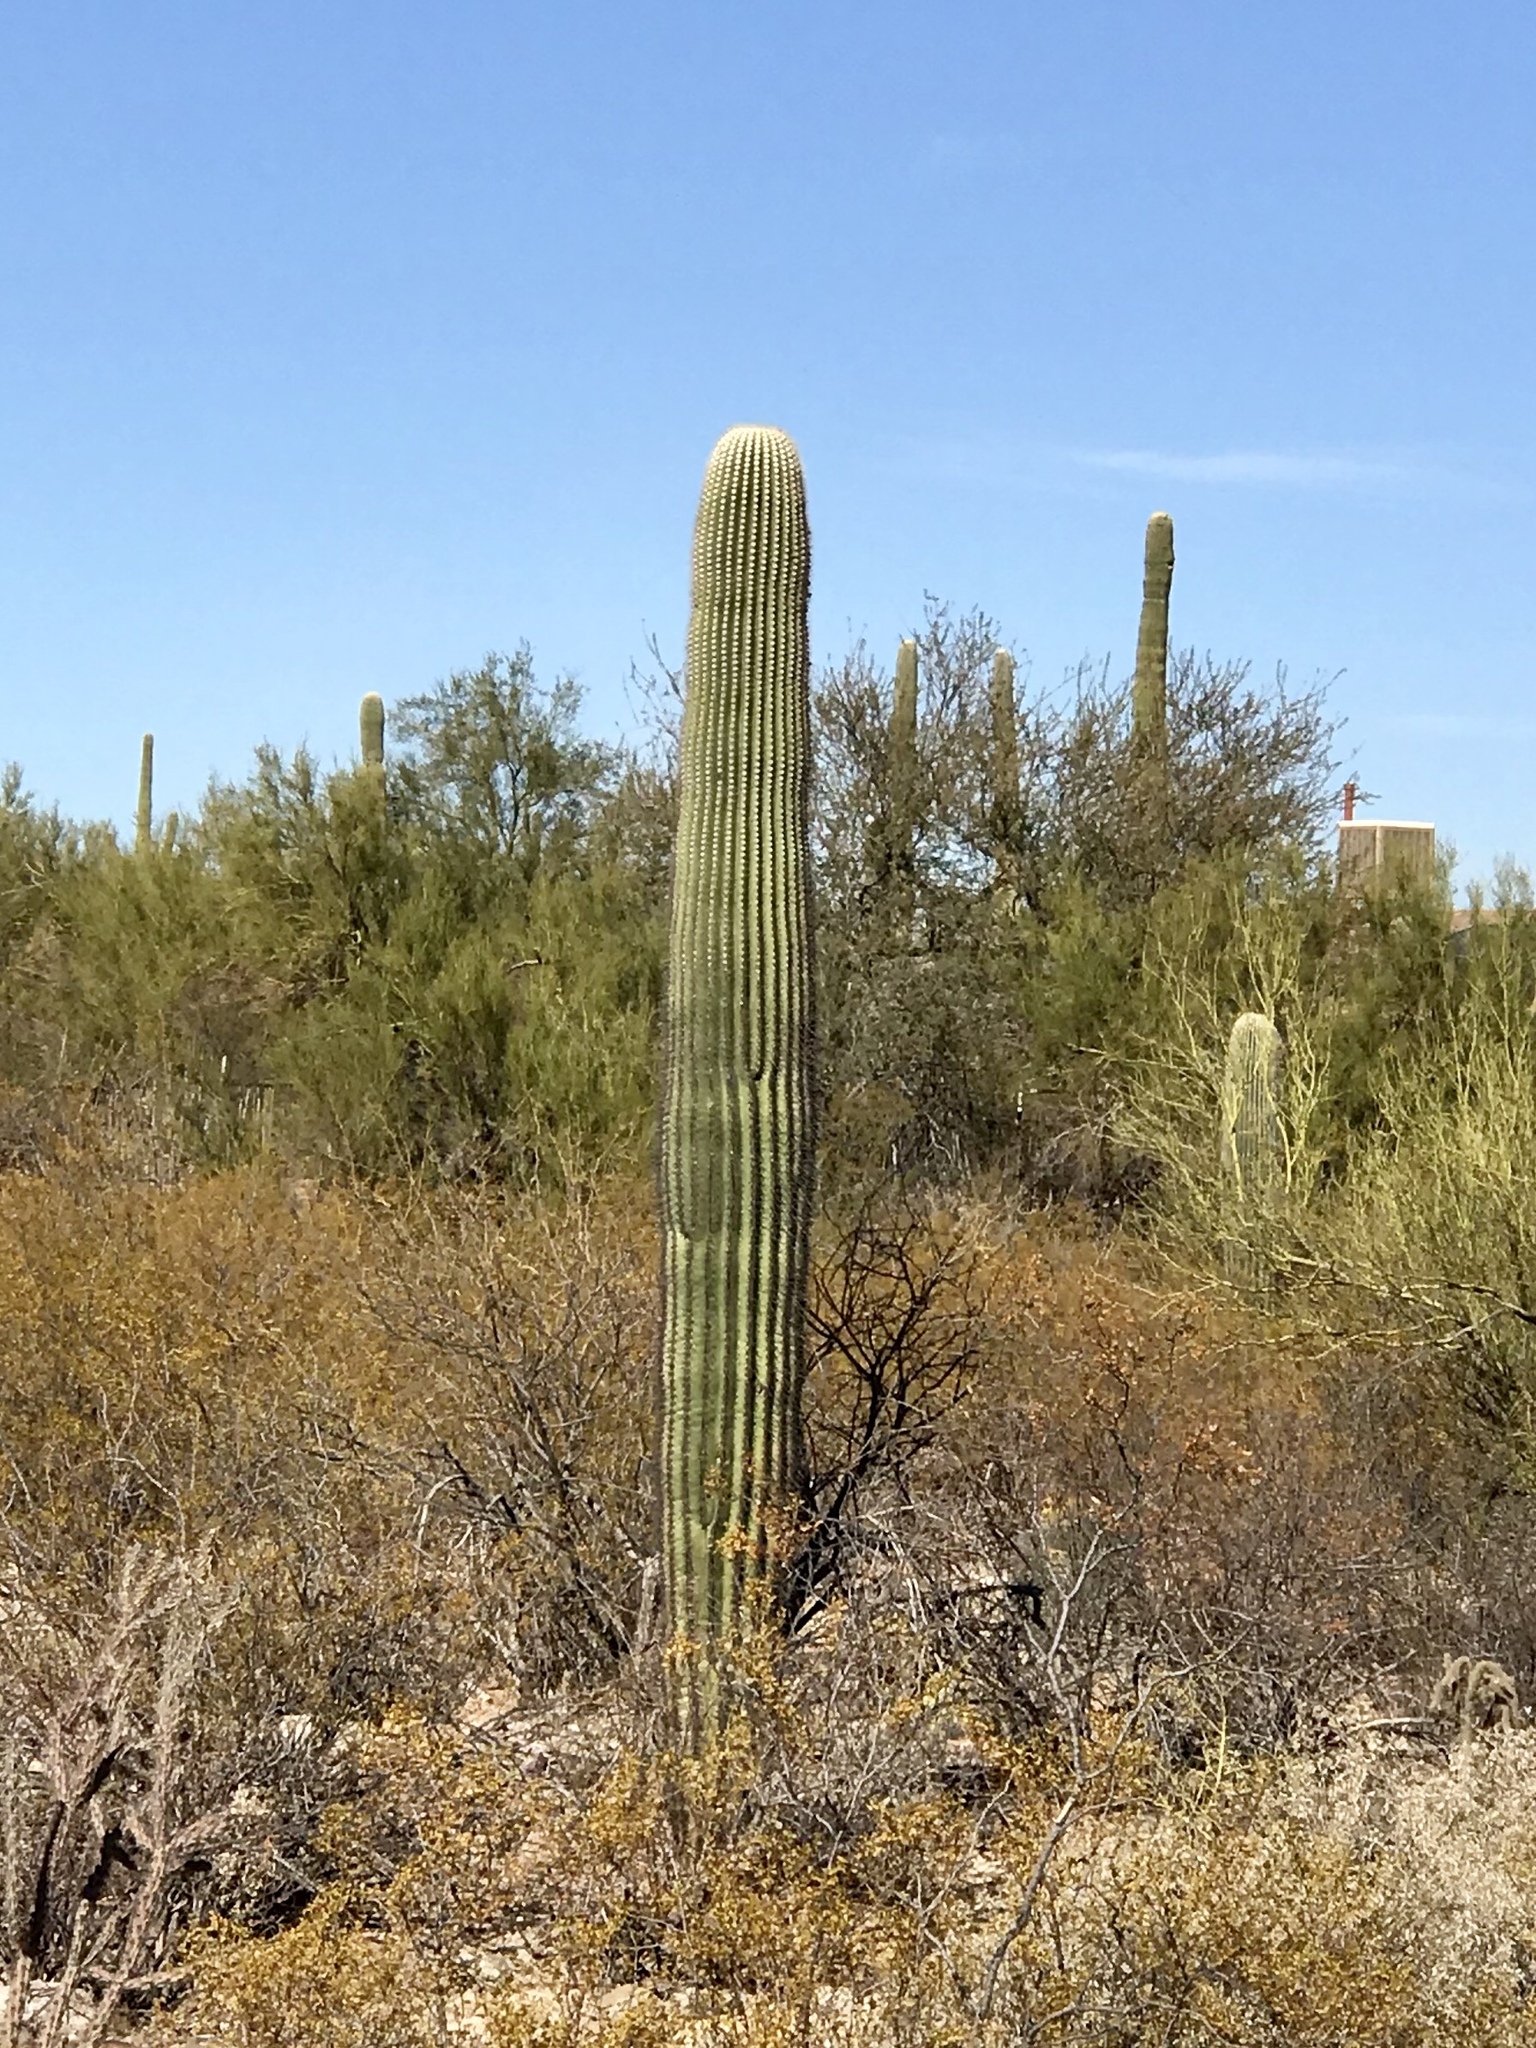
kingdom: Plantae
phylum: Tracheophyta
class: Magnoliopsida
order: Caryophyllales
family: Cactaceae
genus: Carnegiea
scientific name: Carnegiea gigantea
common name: Saguaro
